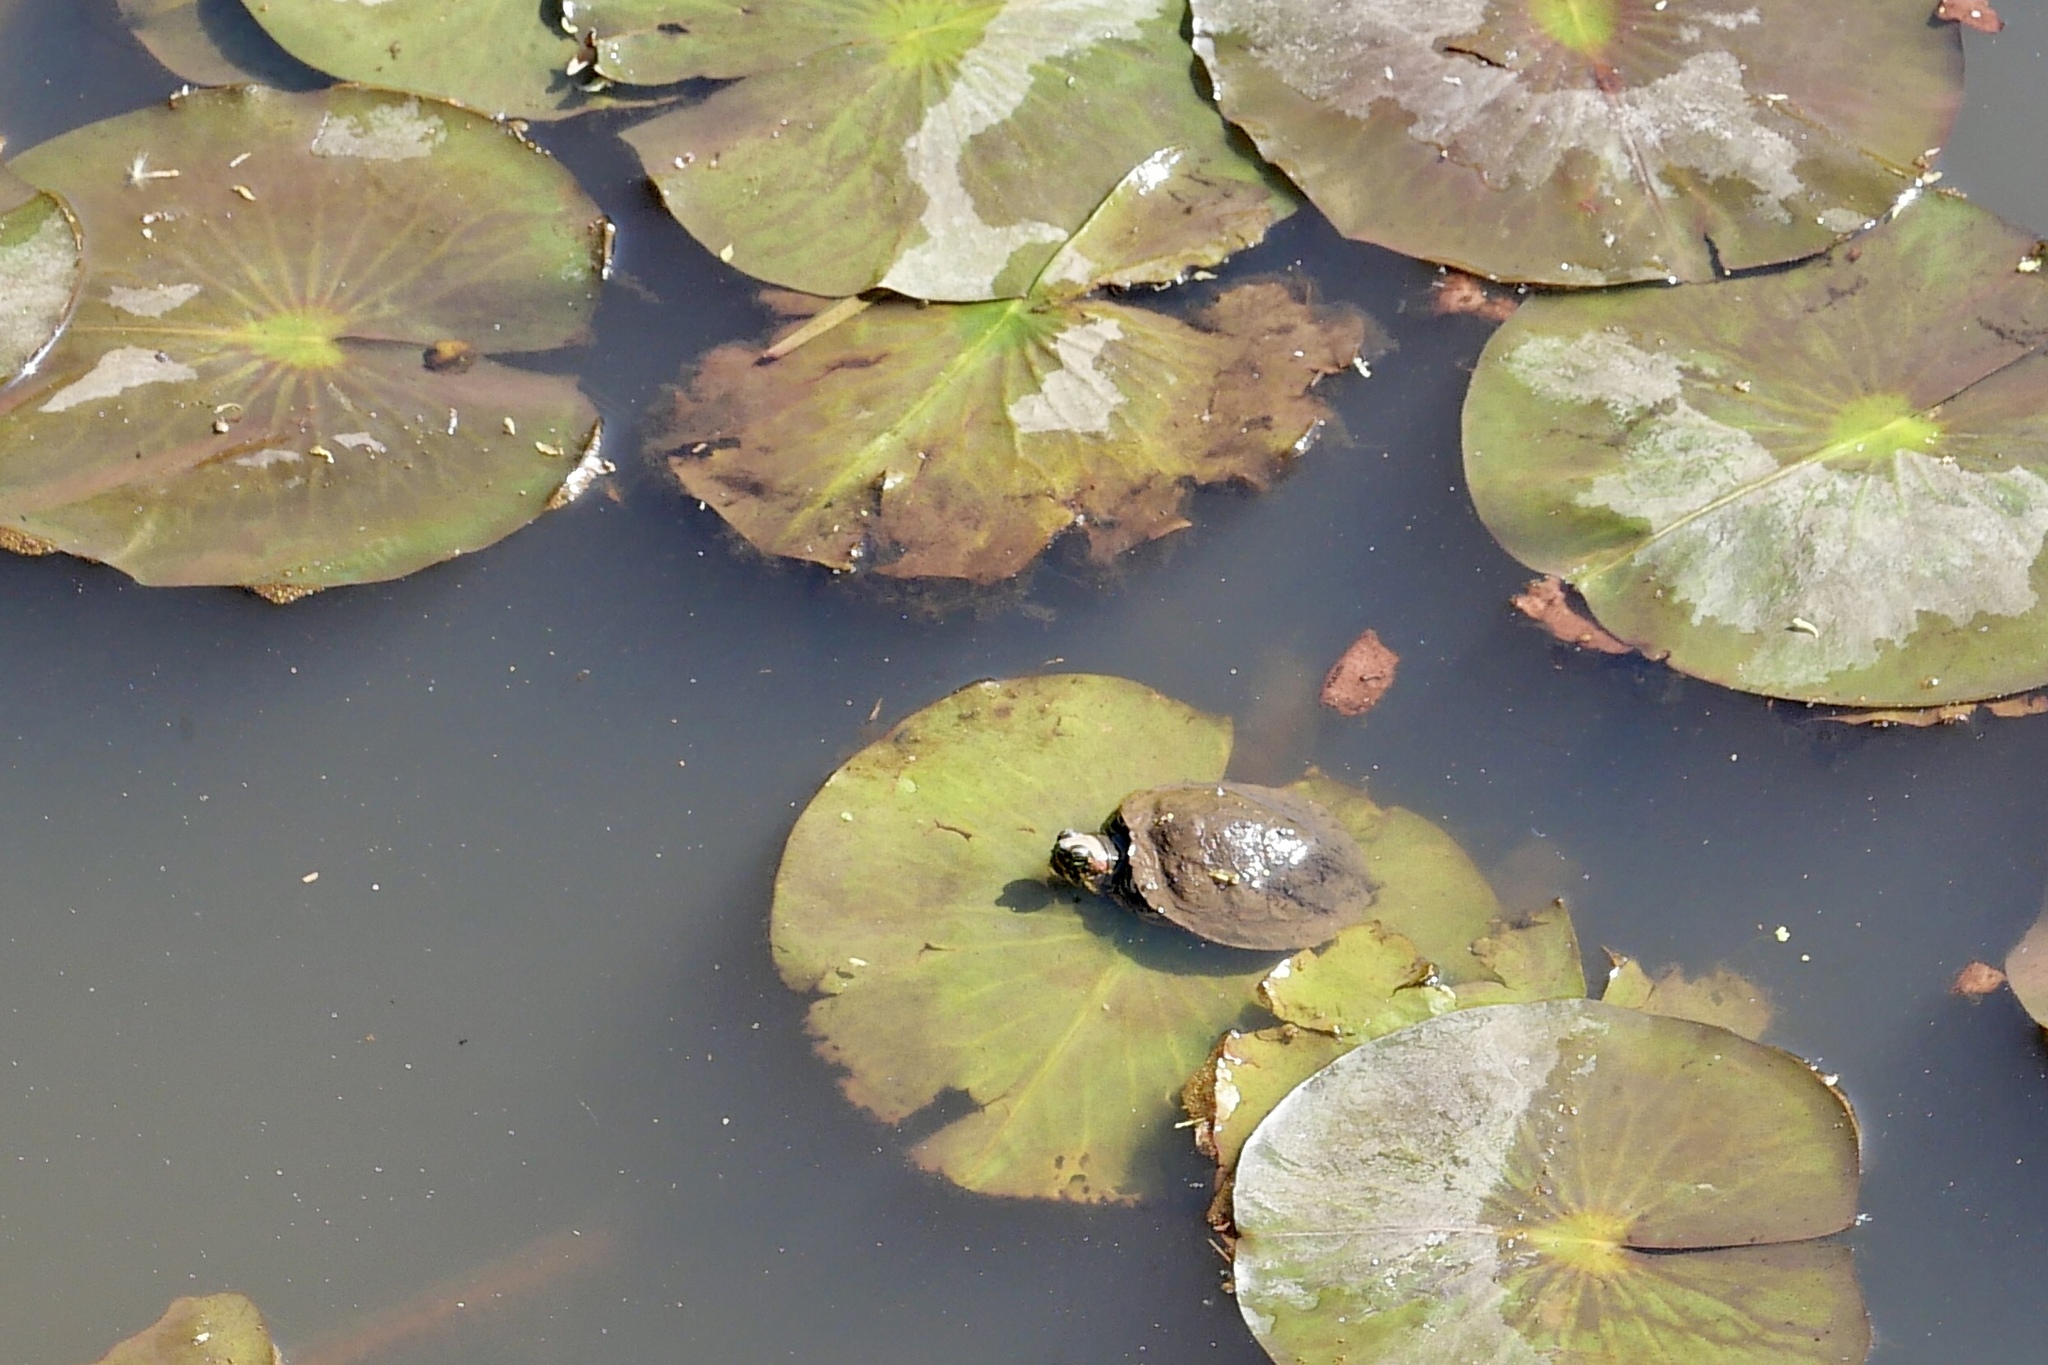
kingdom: Animalia
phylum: Chordata
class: Testudines
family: Emydidae
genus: Trachemys
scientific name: Trachemys scripta
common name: Slider
